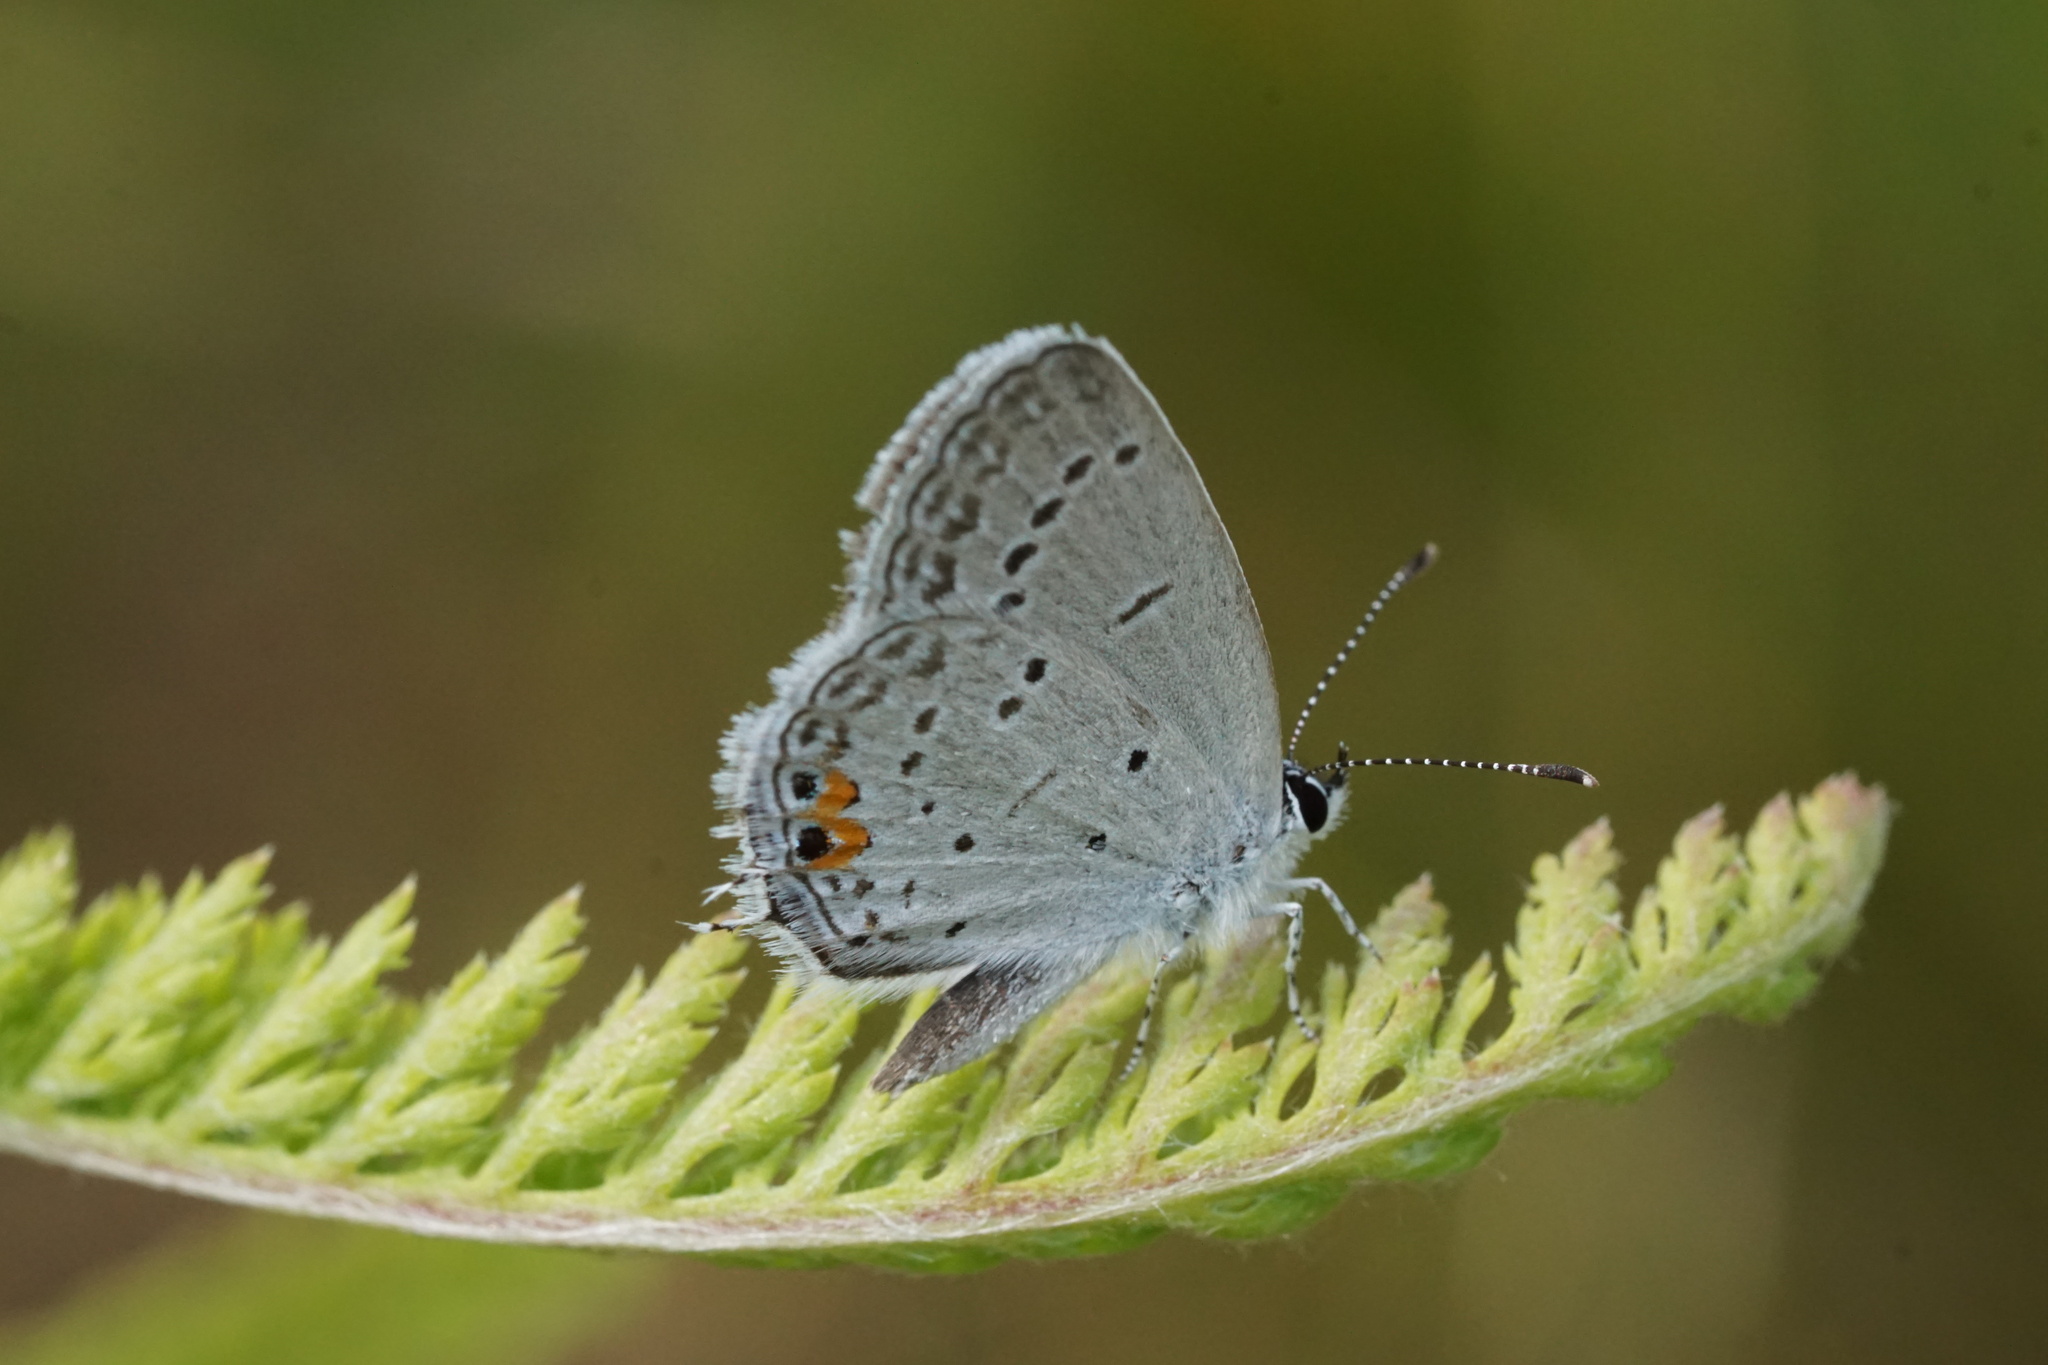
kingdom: Animalia
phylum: Arthropoda
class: Insecta
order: Lepidoptera
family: Lycaenidae
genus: Elkalyce
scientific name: Elkalyce comyntas
